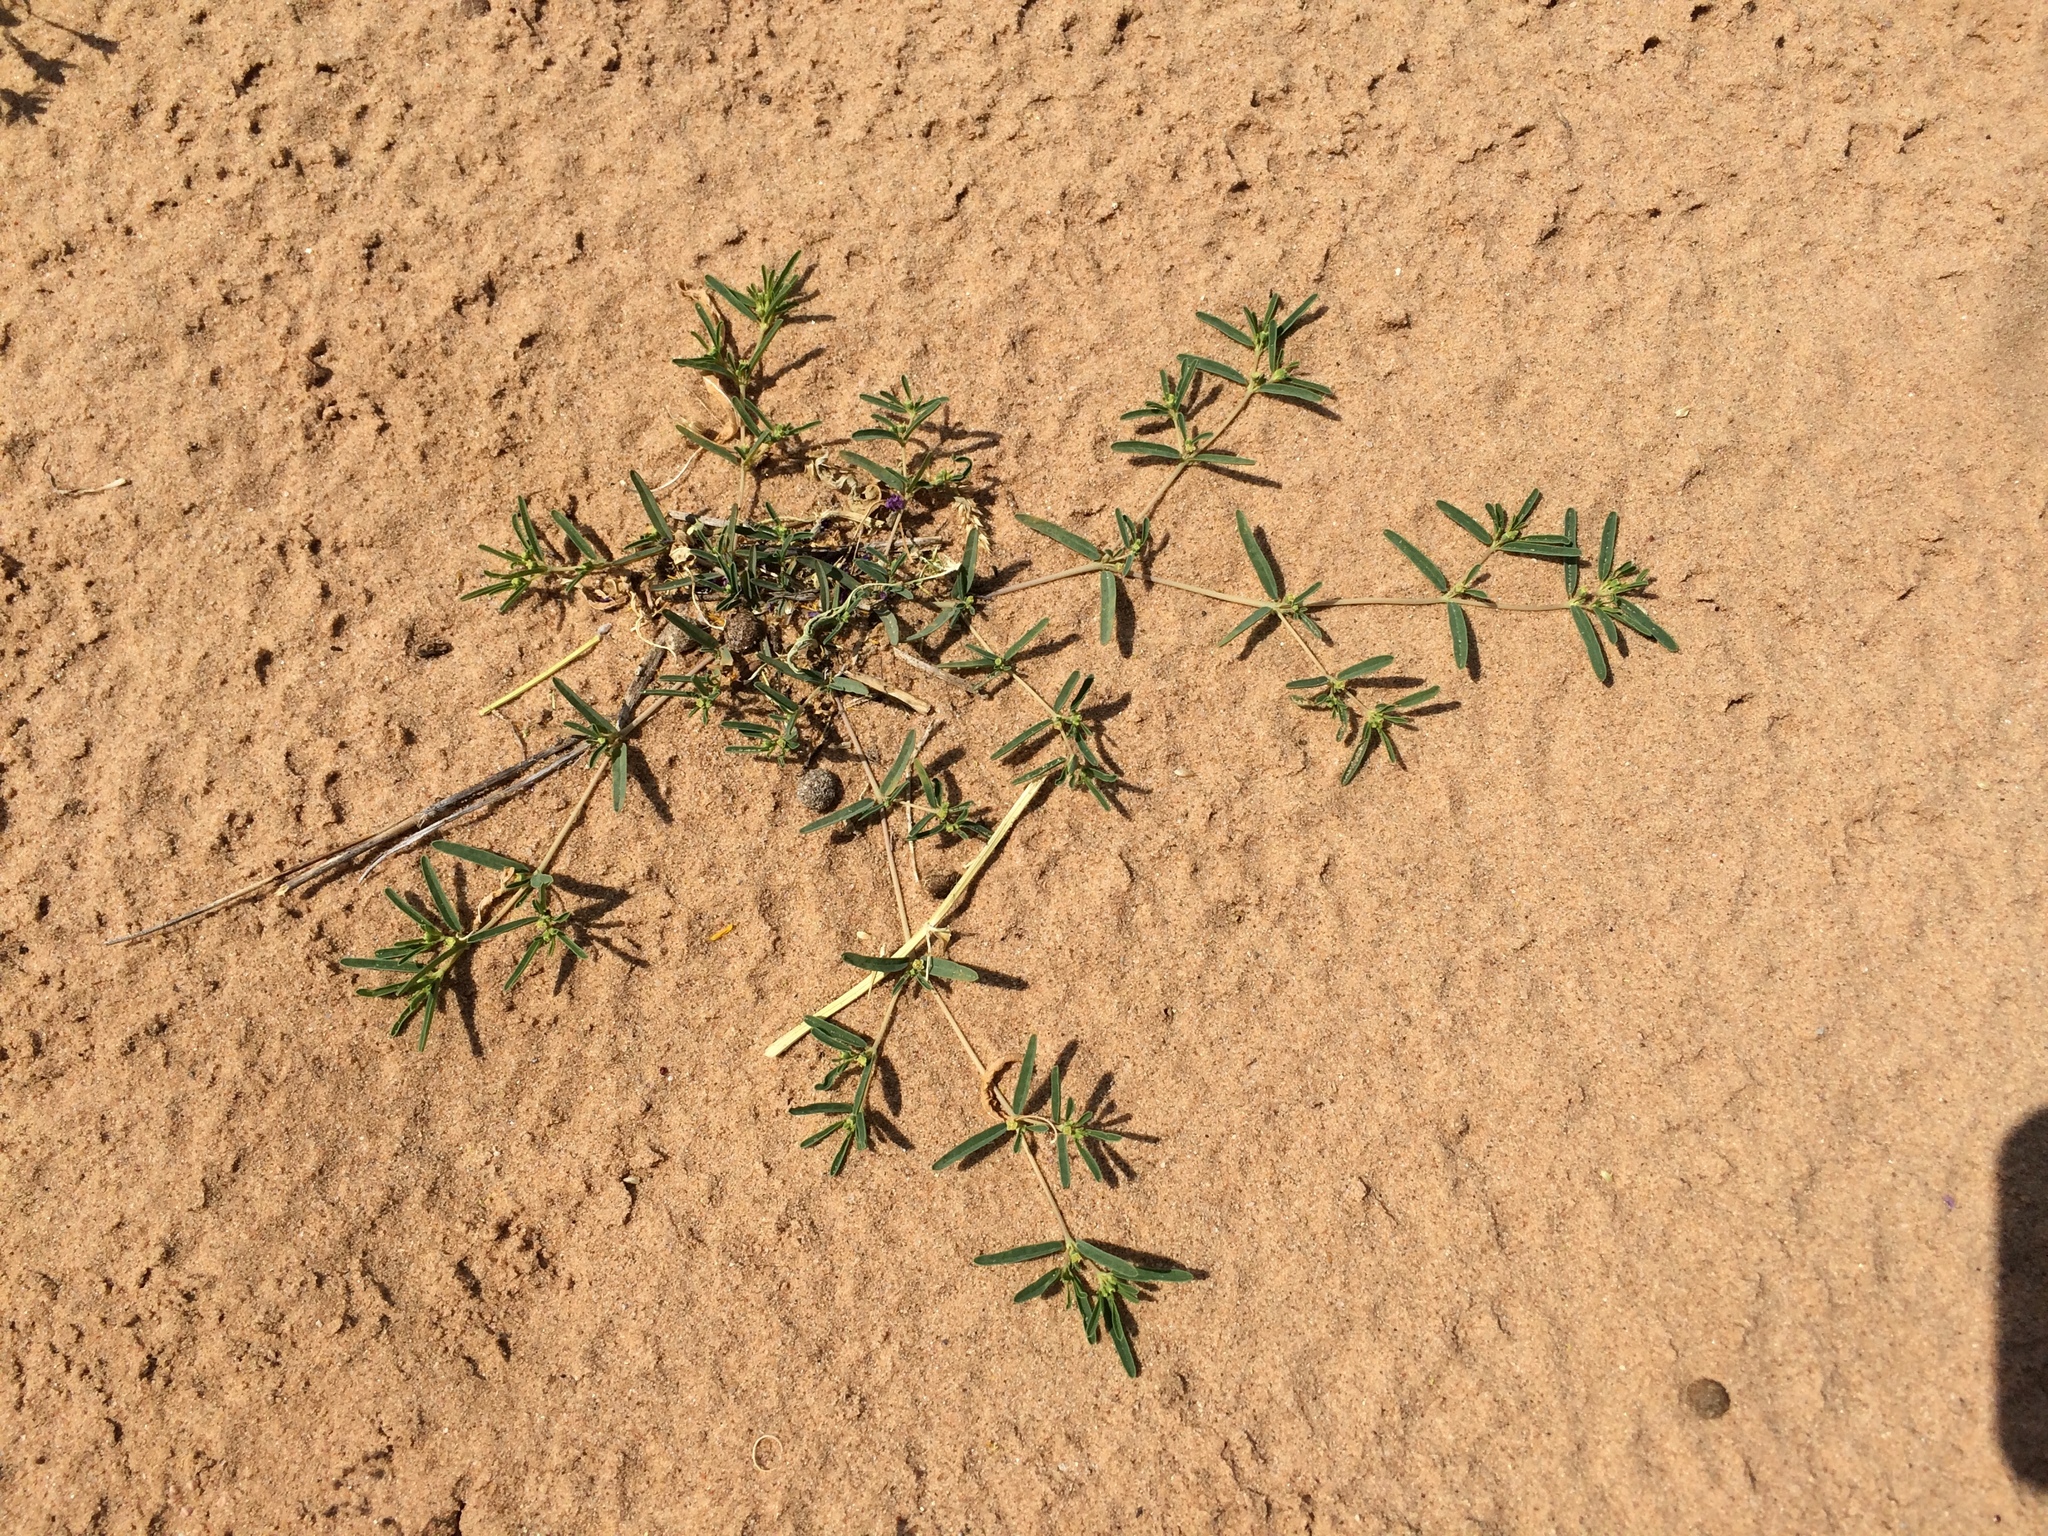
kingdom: Plantae
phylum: Tracheophyta
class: Magnoliopsida
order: Malpighiales
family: Euphorbiaceae
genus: Euphorbia
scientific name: Euphorbia parryi
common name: Dune spurge
